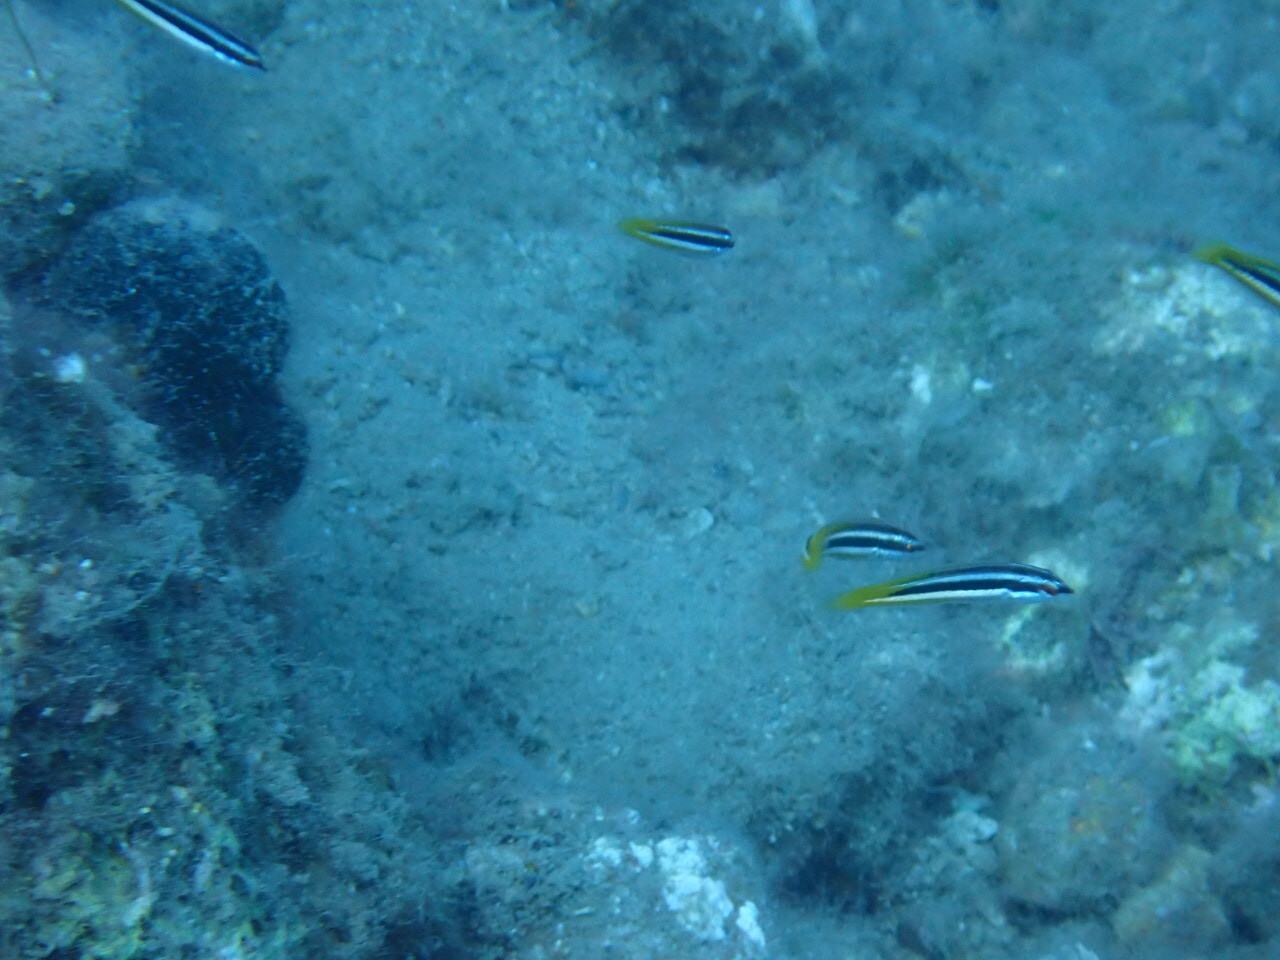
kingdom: Animalia
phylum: Chordata
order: Perciformes
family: Labridae
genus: Coris
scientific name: Coris julis
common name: Rainbow wrasse
